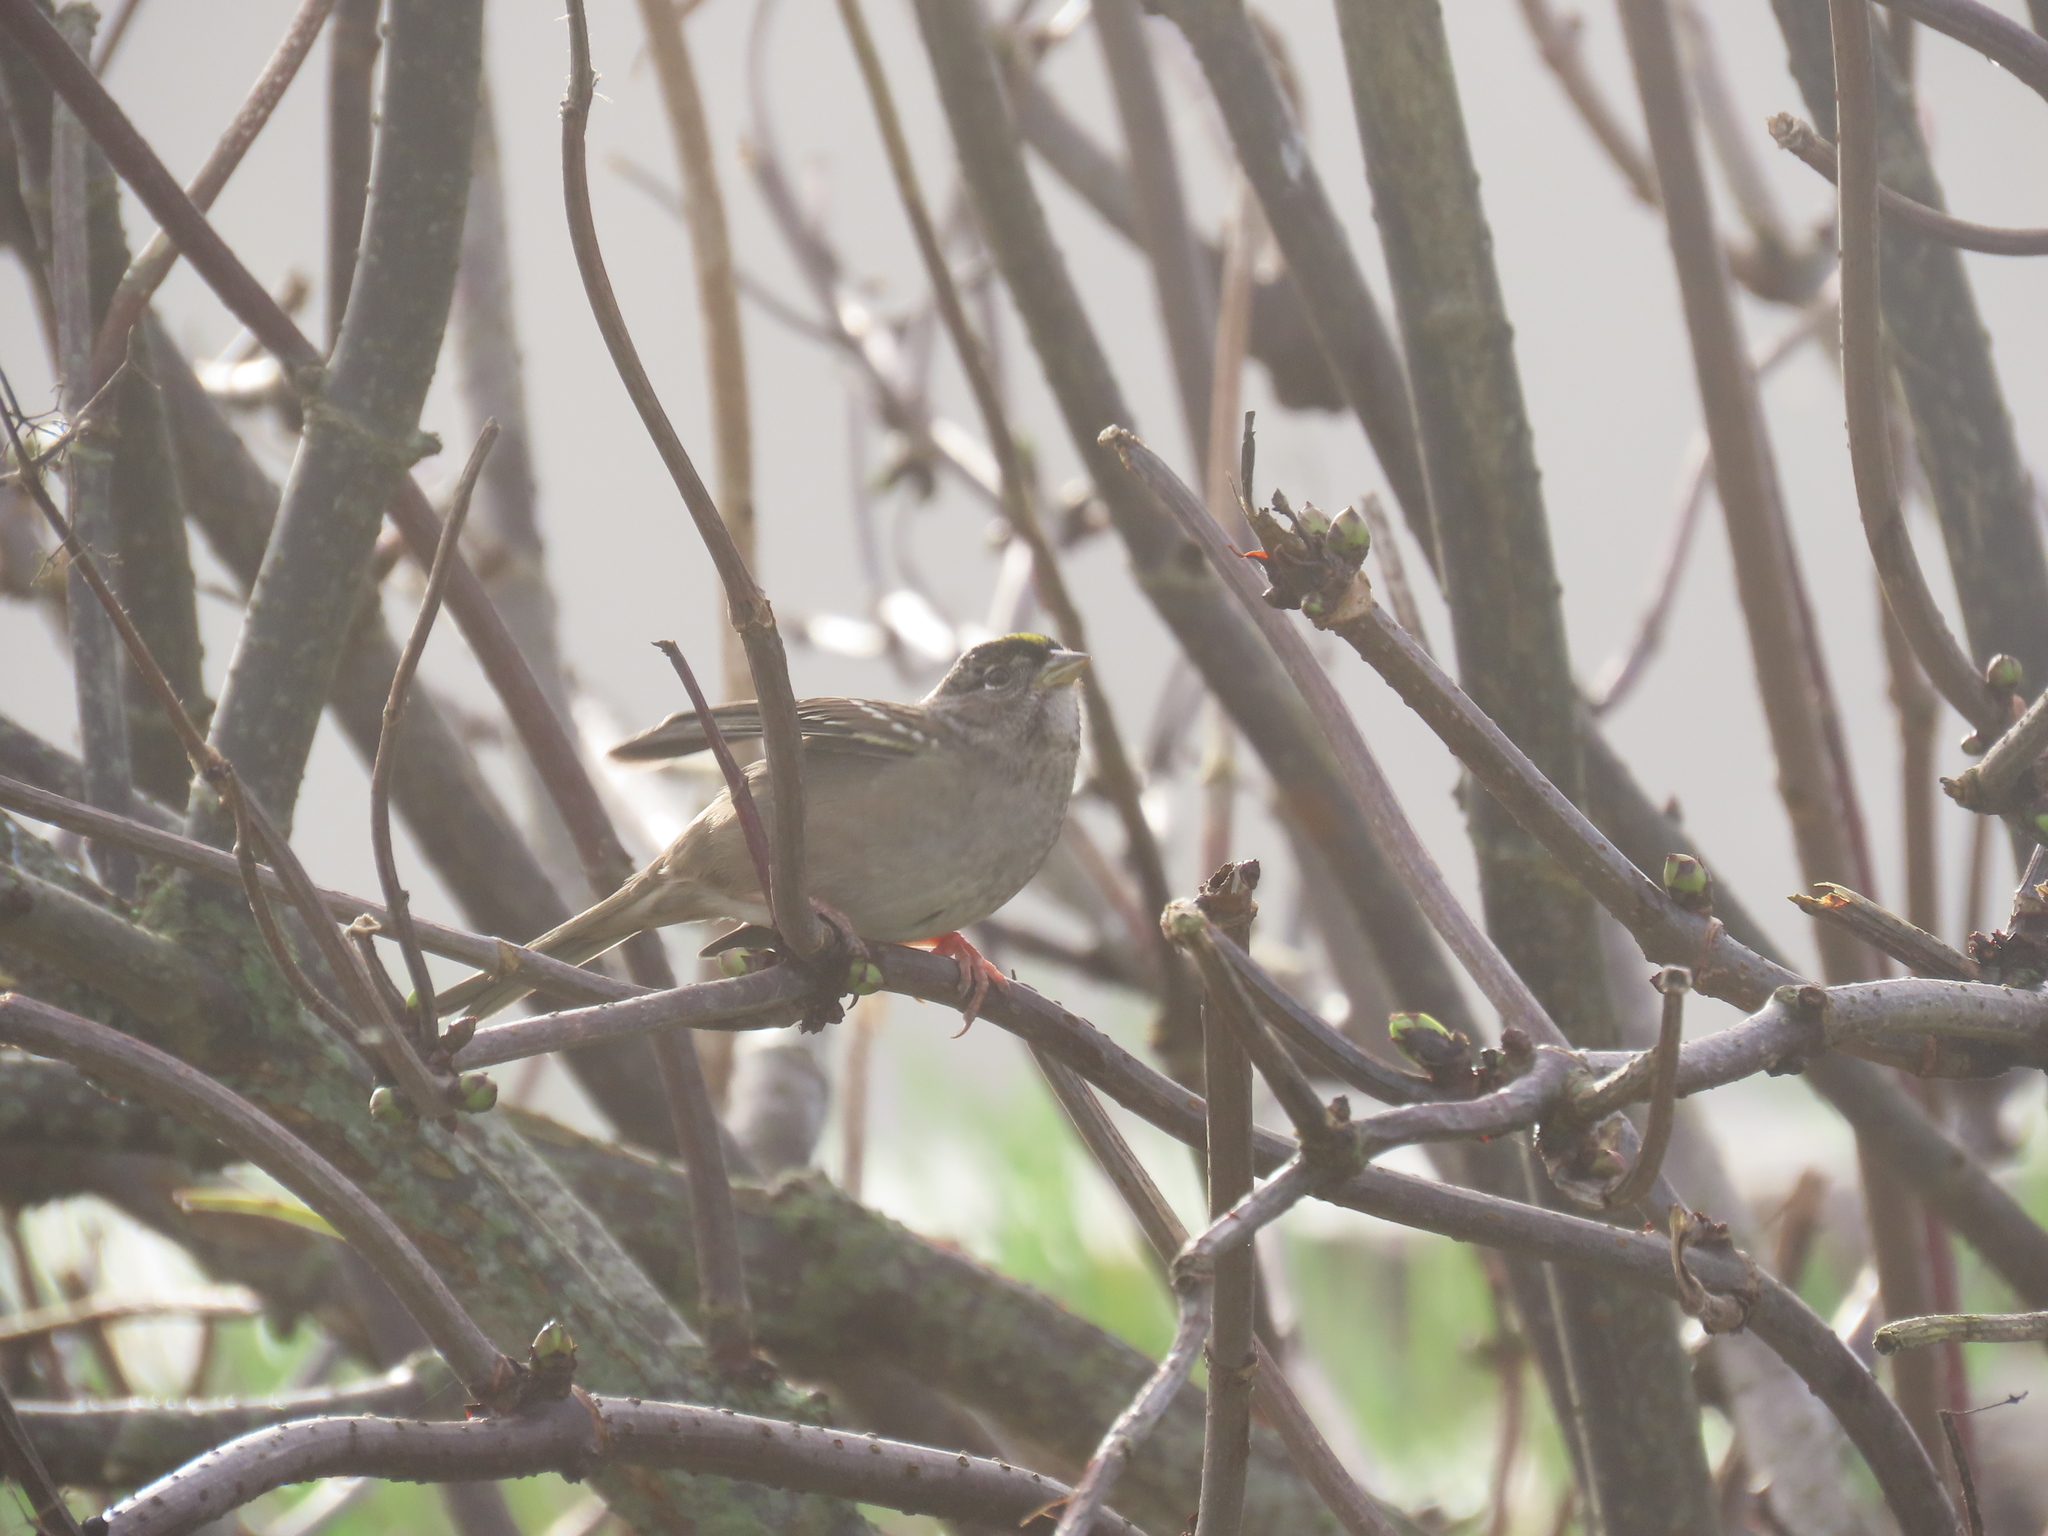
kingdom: Animalia
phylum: Chordata
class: Aves
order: Passeriformes
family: Passerellidae
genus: Zonotrichia
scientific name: Zonotrichia atricapilla
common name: Golden-crowned sparrow
